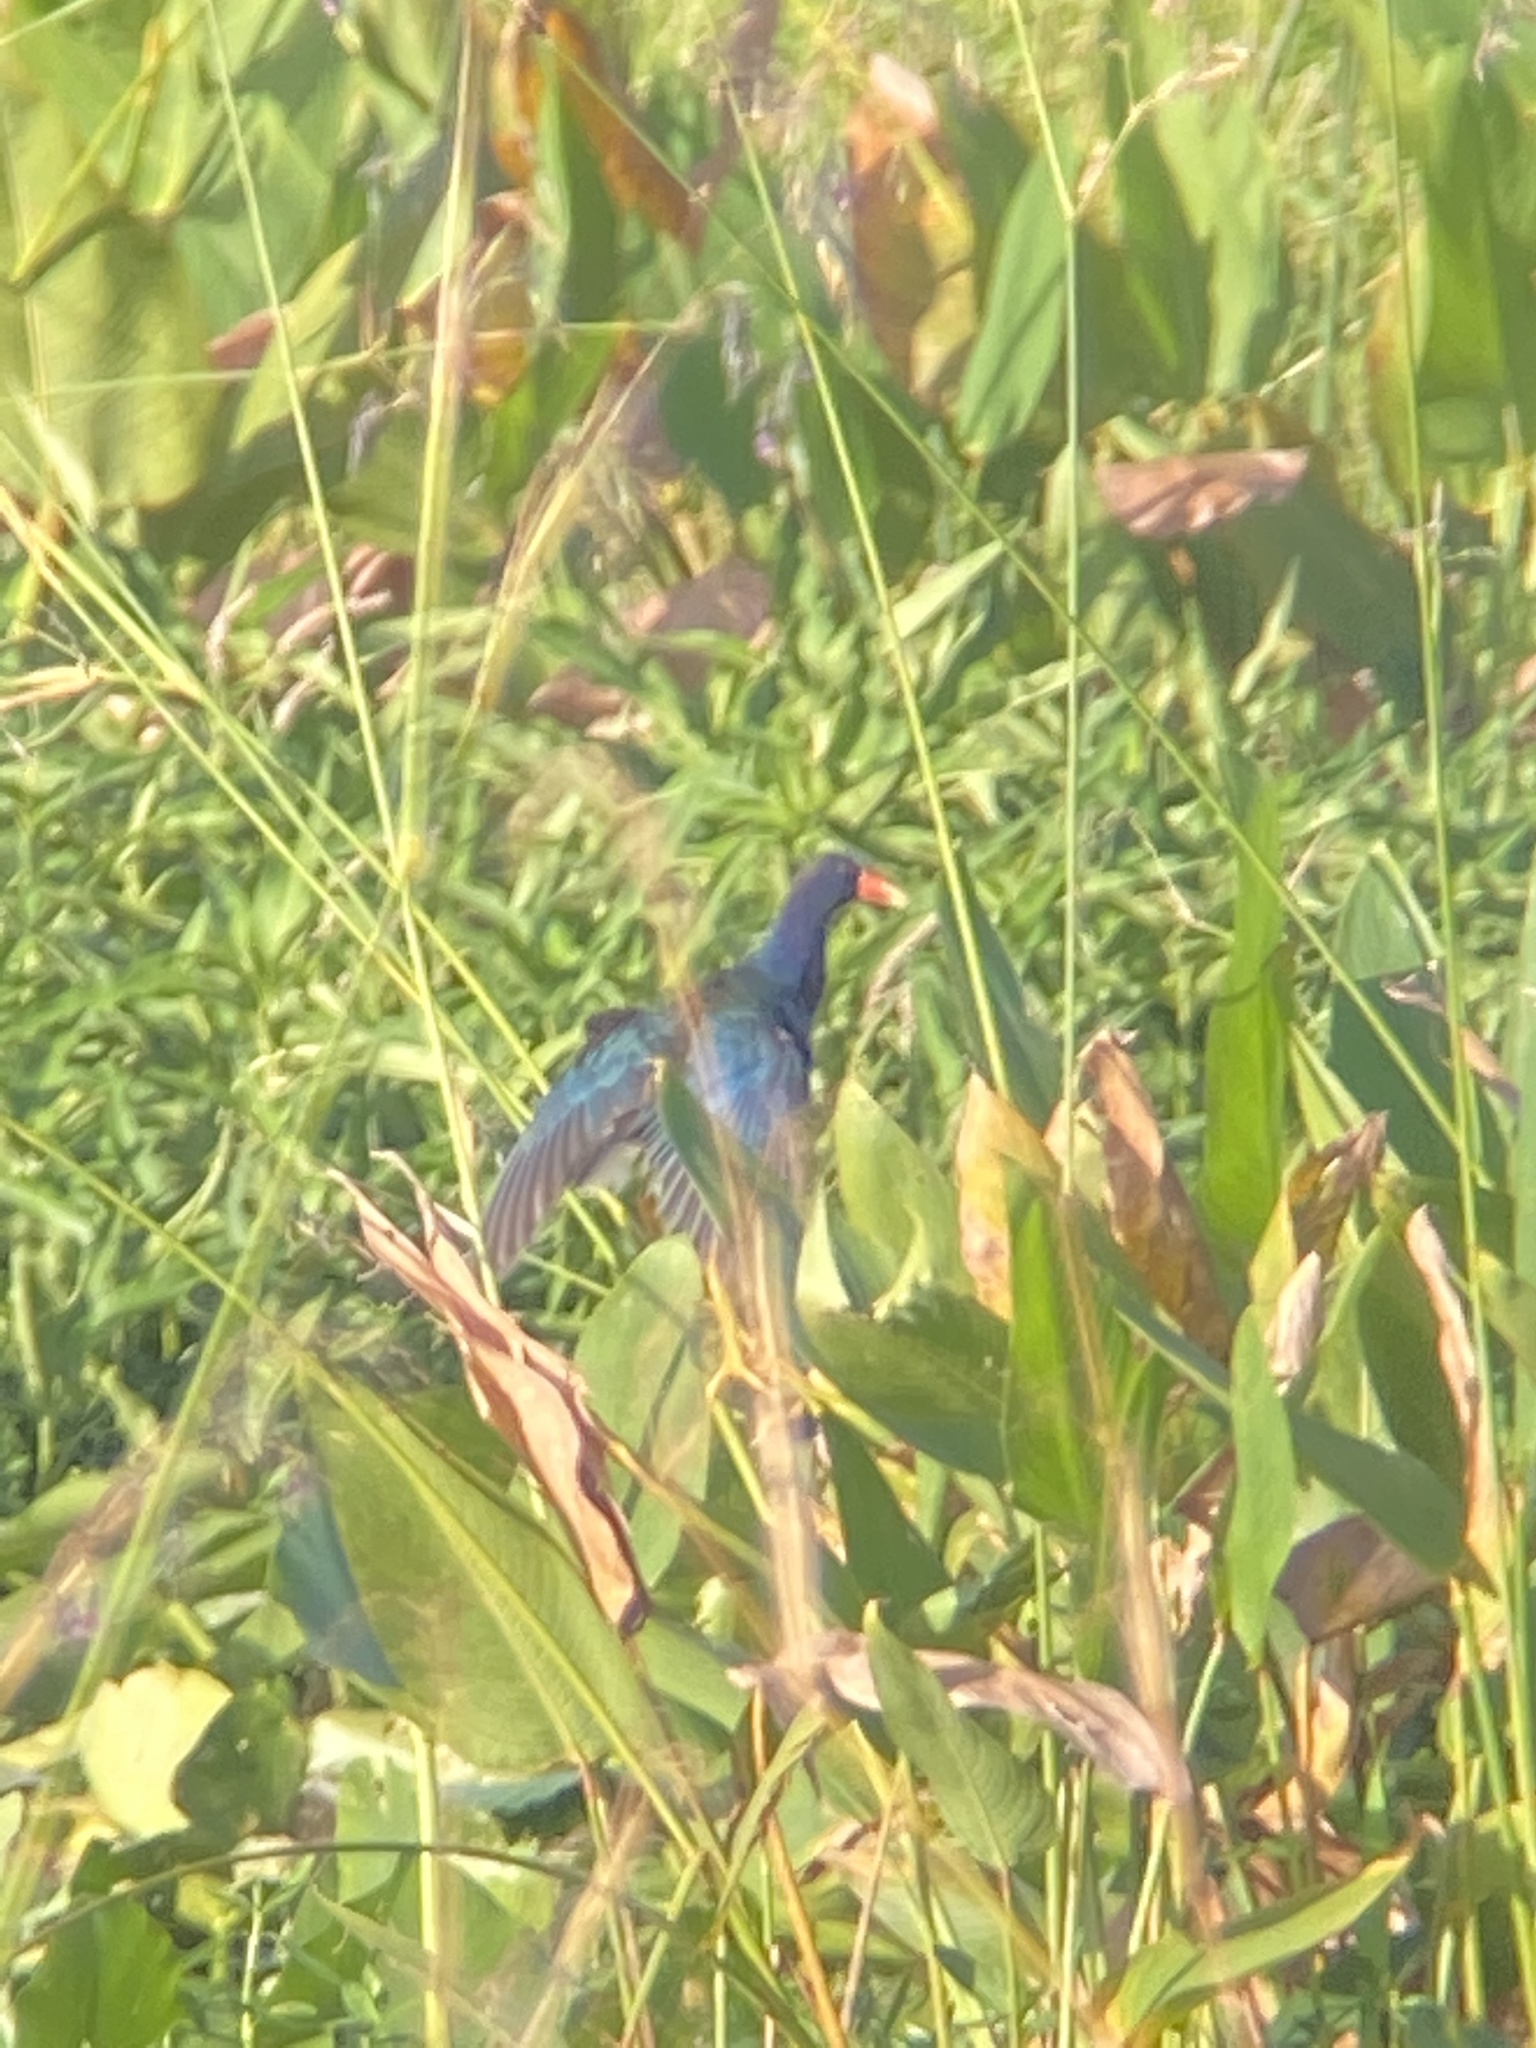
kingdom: Animalia
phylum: Chordata
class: Aves
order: Gruiformes
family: Rallidae
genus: Porphyrio
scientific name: Porphyrio martinica
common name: Purple gallinule
